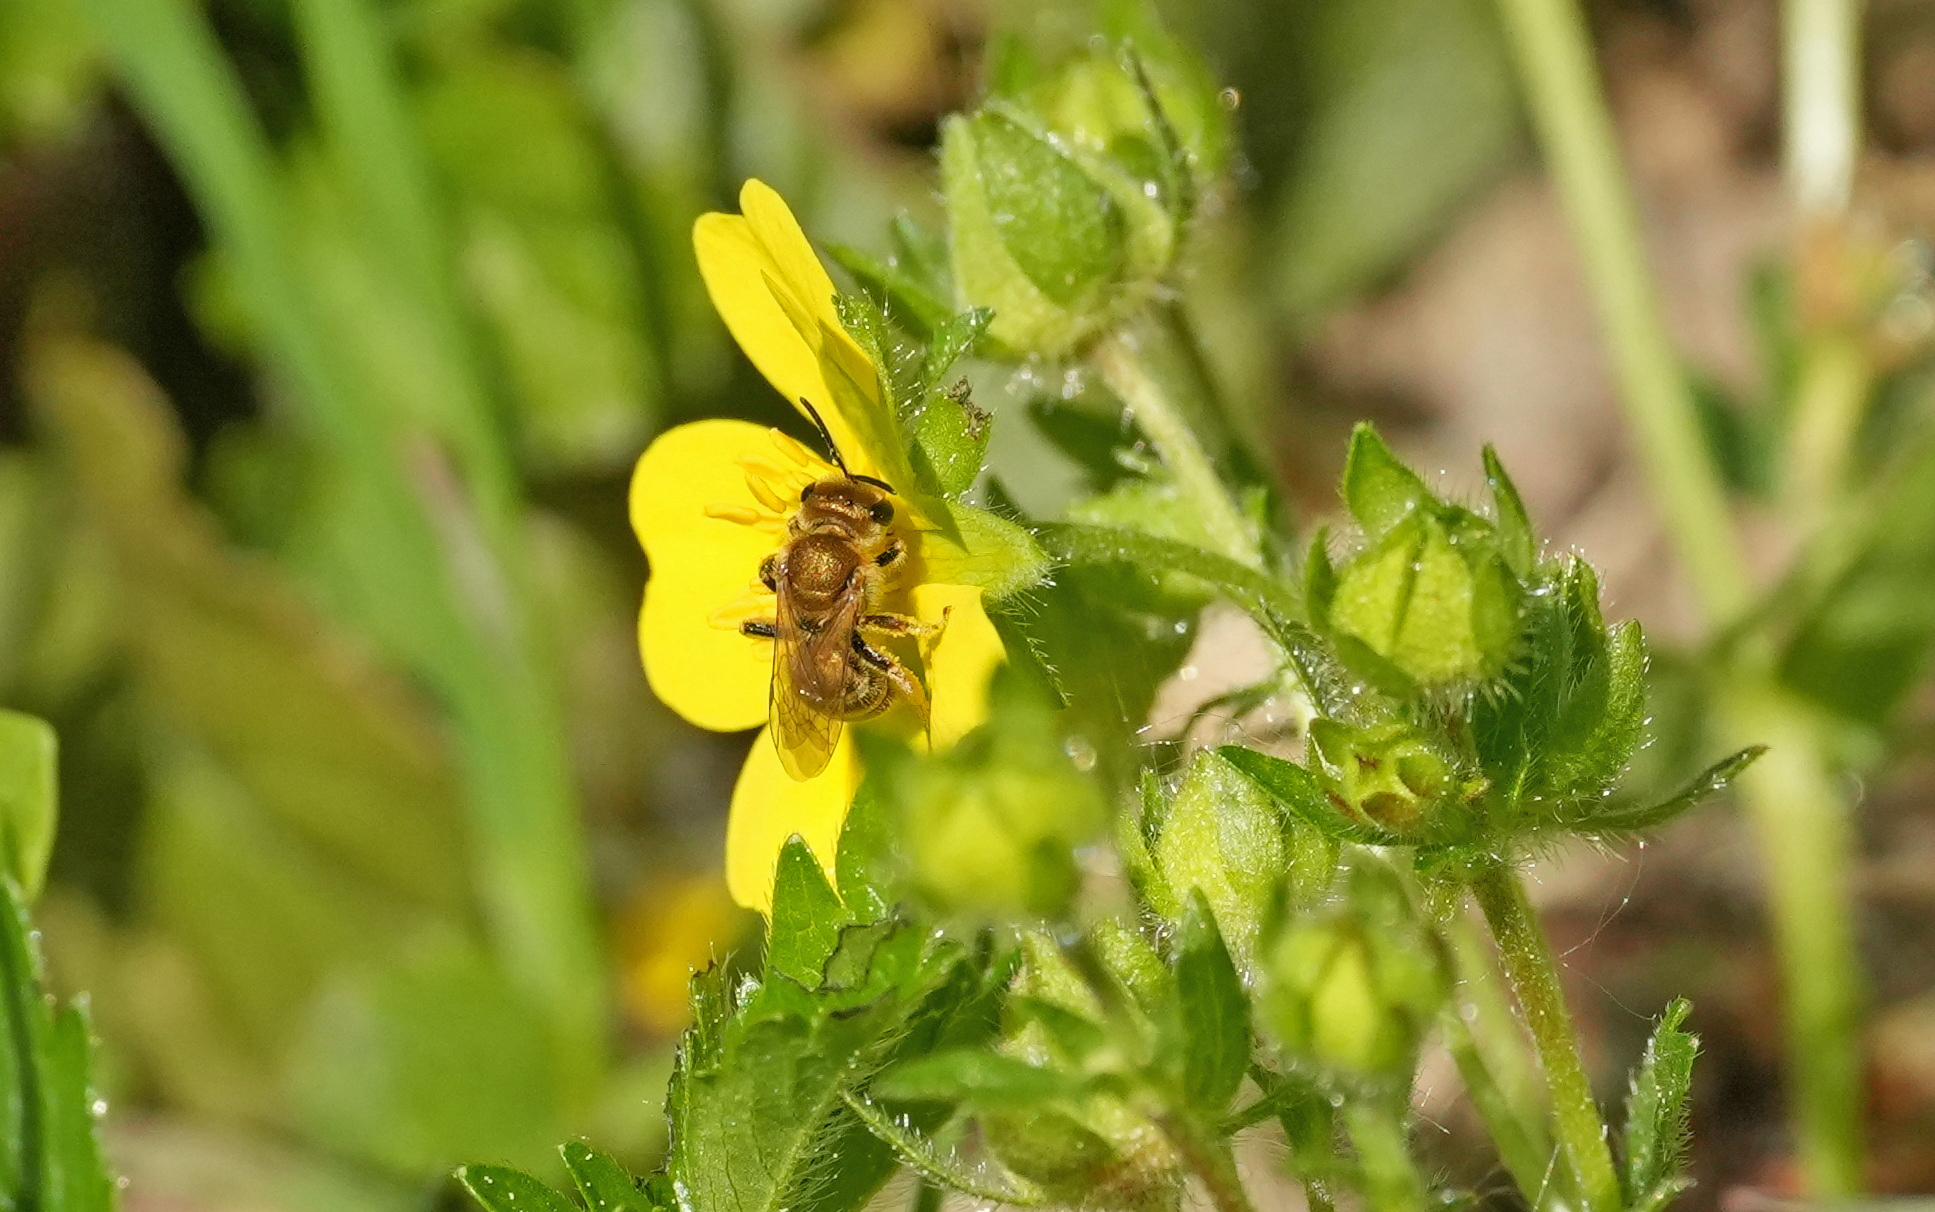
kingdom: Animalia
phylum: Arthropoda
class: Insecta
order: Hymenoptera
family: Halictidae
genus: Halictus
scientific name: Halictus subauratus
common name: Golden furrow bee
